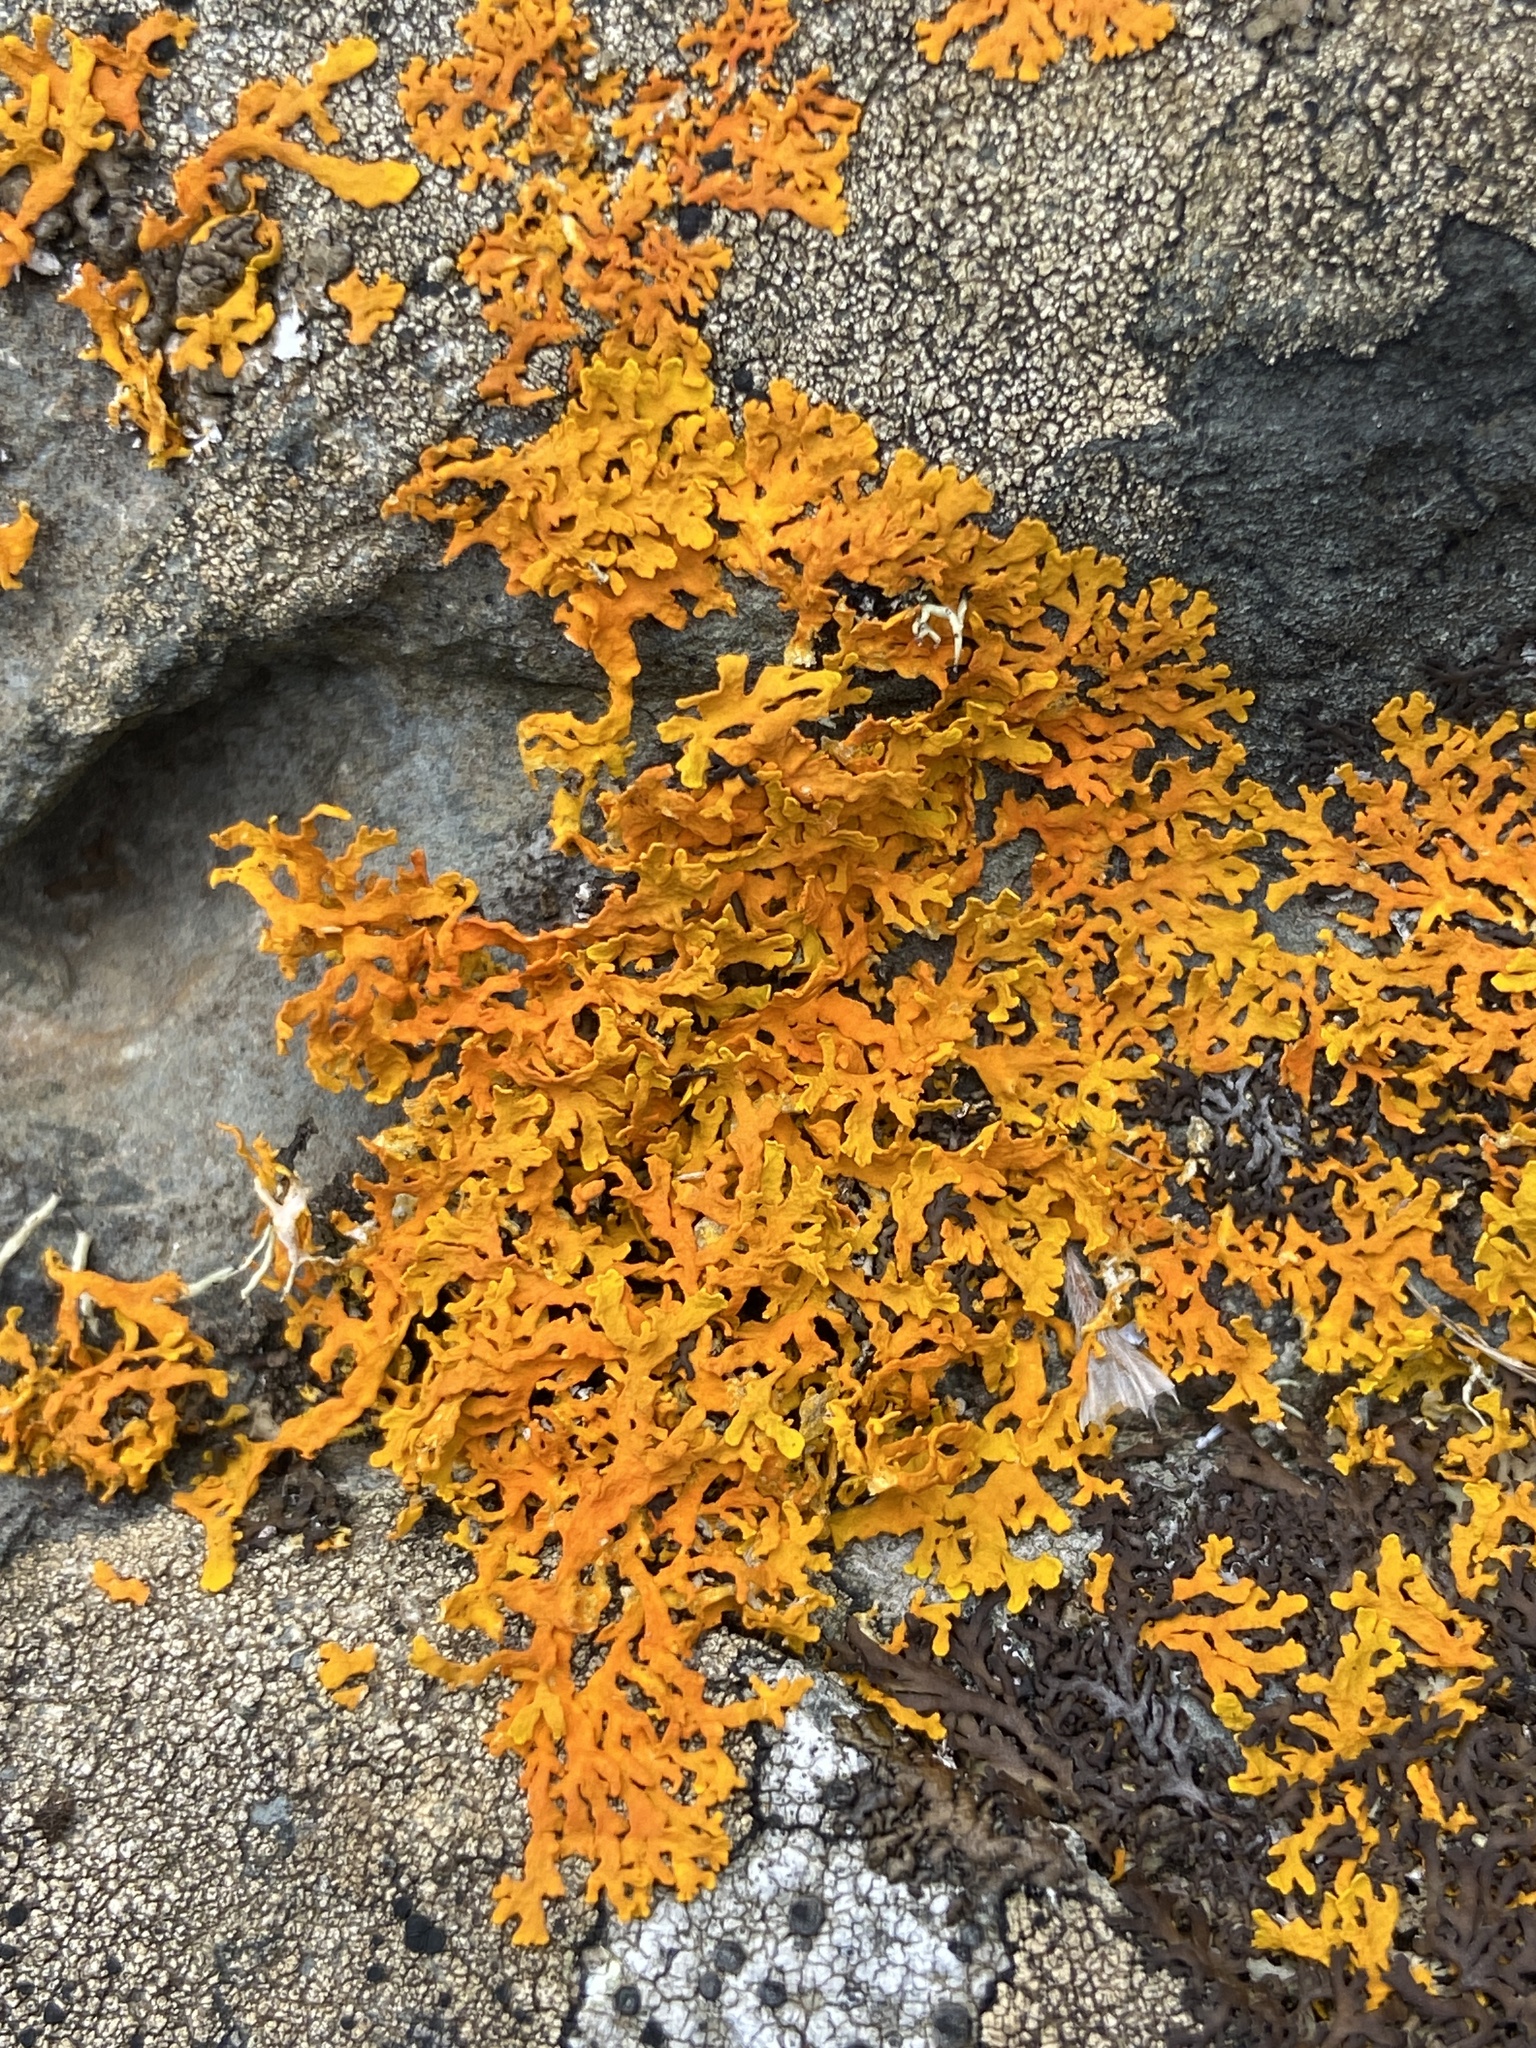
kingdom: Fungi
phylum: Ascomycota
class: Lecanoromycetes
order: Teloschistales
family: Teloschistaceae
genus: Xanthoria
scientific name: Xanthoria aureola
